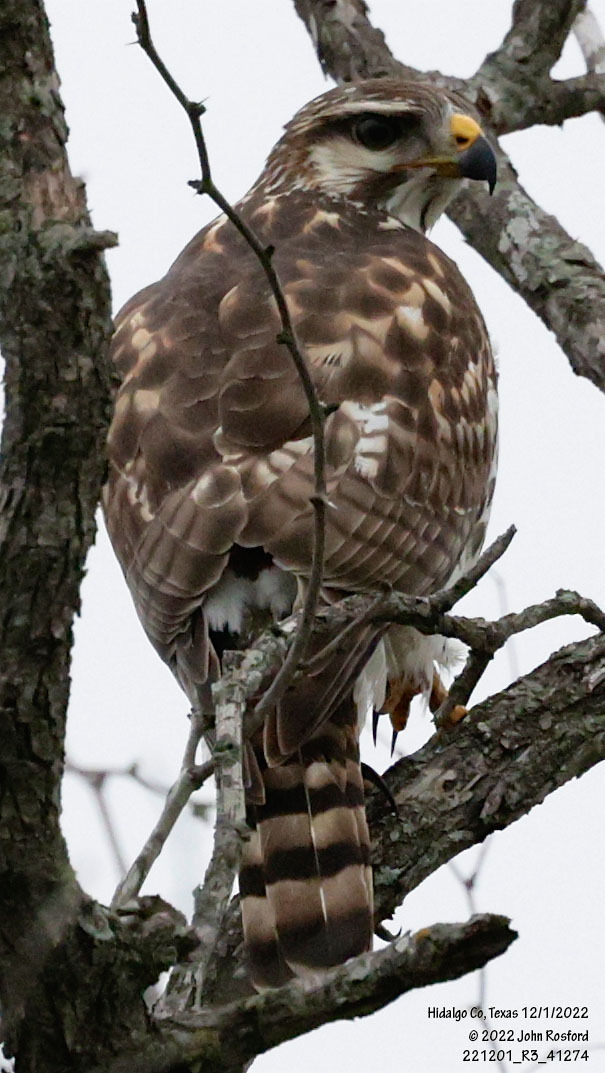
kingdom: Animalia
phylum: Chordata
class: Aves
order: Accipitriformes
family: Accipitridae
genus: Buteo
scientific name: Buteo nitidus
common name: Grey-lined hawk
